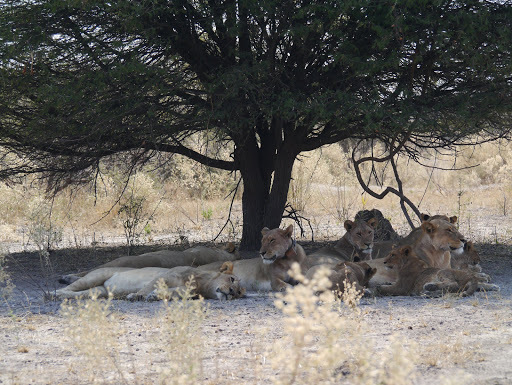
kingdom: Animalia
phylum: Chordata
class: Mammalia
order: Carnivora
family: Felidae
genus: Panthera
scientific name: Panthera leo
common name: Lion
